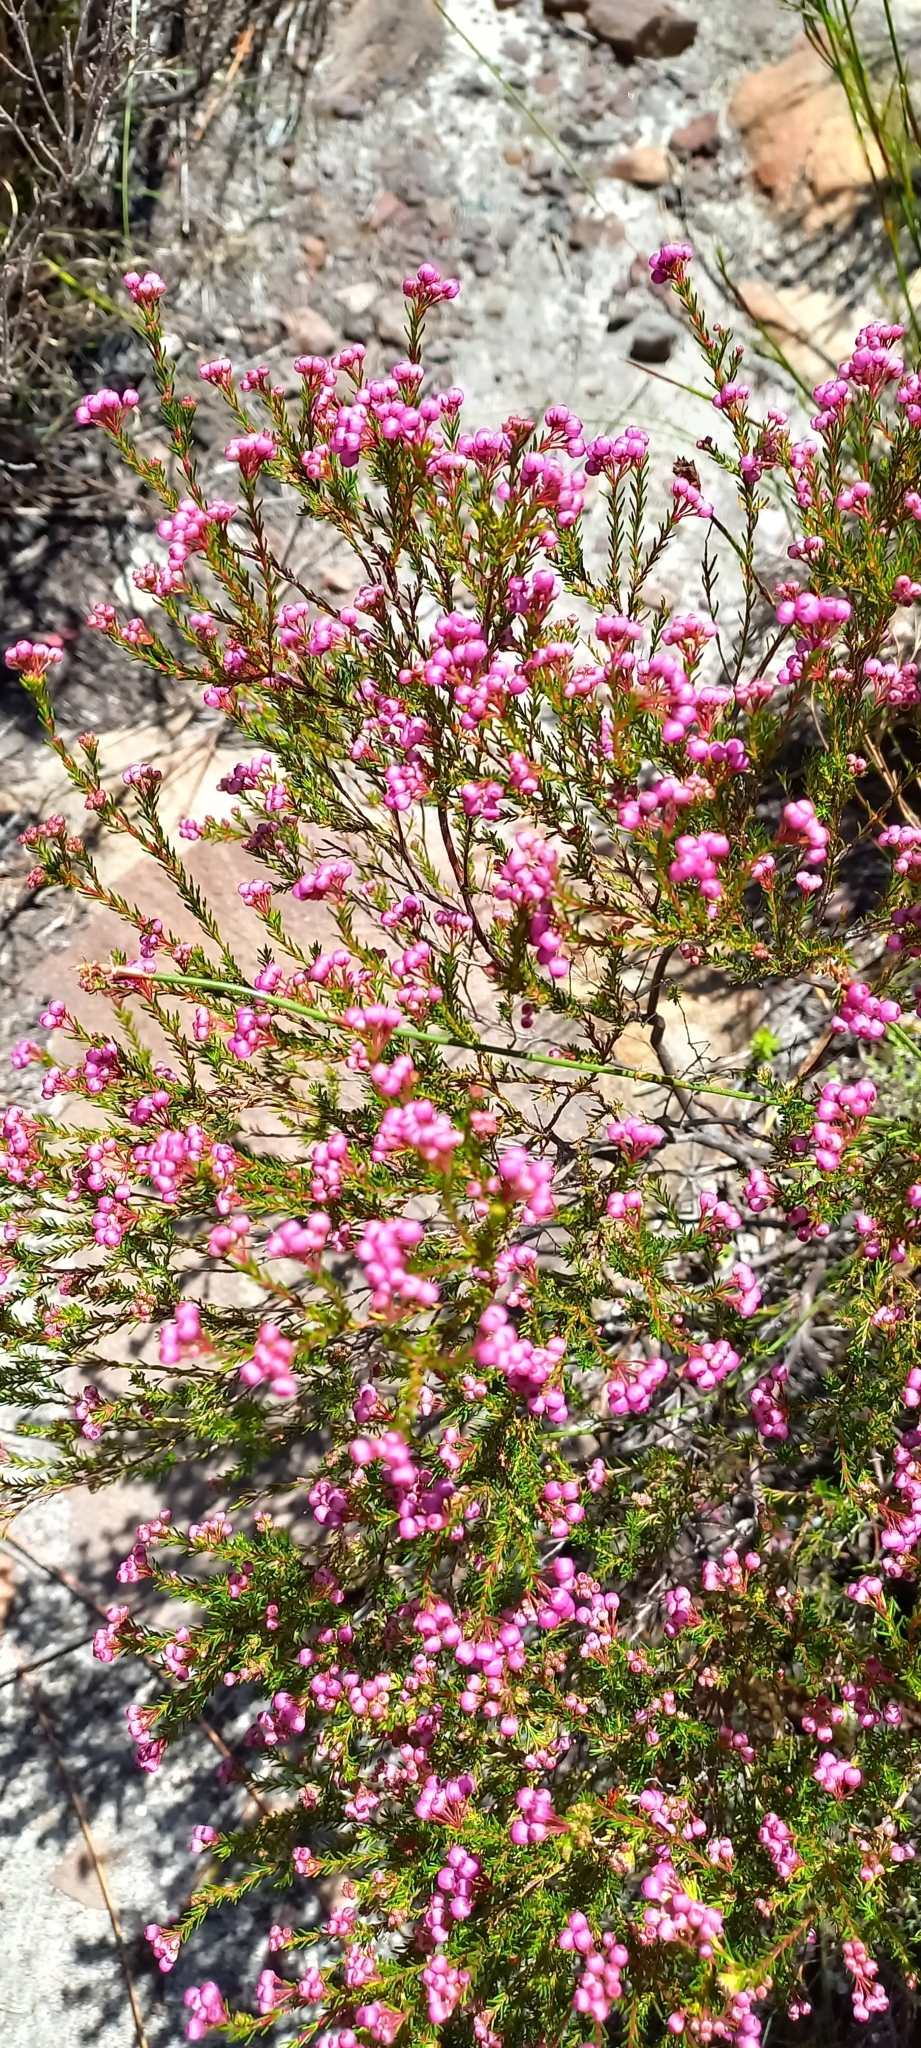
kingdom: Plantae
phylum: Tracheophyta
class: Magnoliopsida
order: Ericales
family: Ericaceae
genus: Erica
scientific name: Erica multumbellifera
